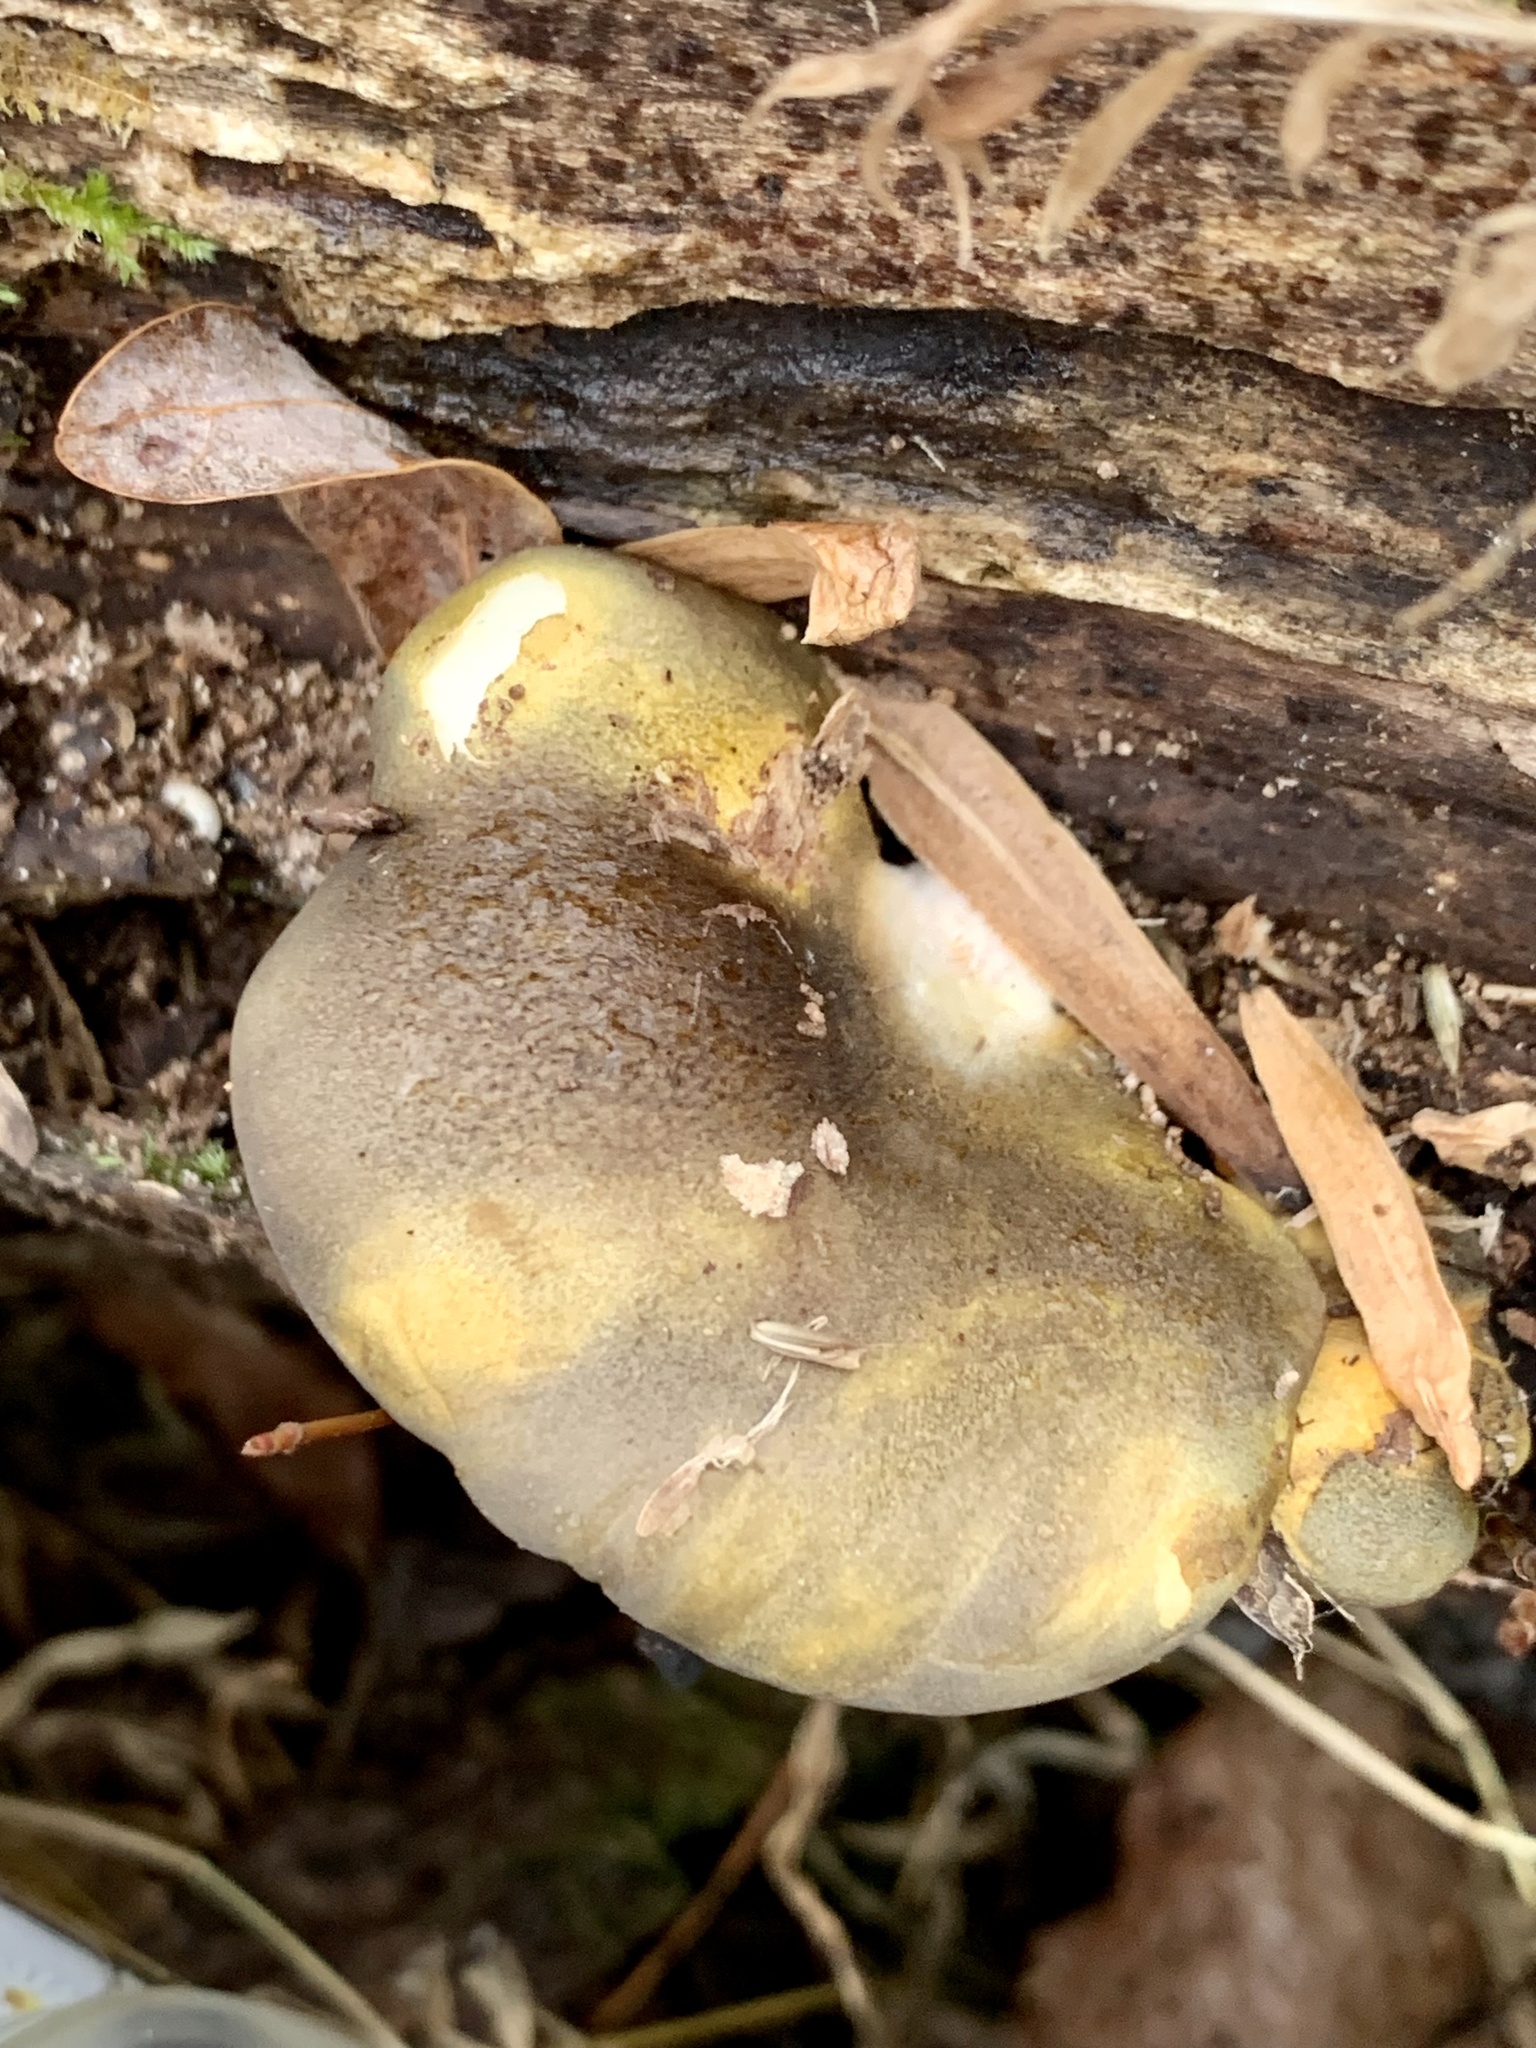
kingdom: Fungi
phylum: Basidiomycota
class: Agaricomycetes
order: Agaricales
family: Sarcomyxaceae
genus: Sarcomyxa
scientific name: Sarcomyxa serotina
